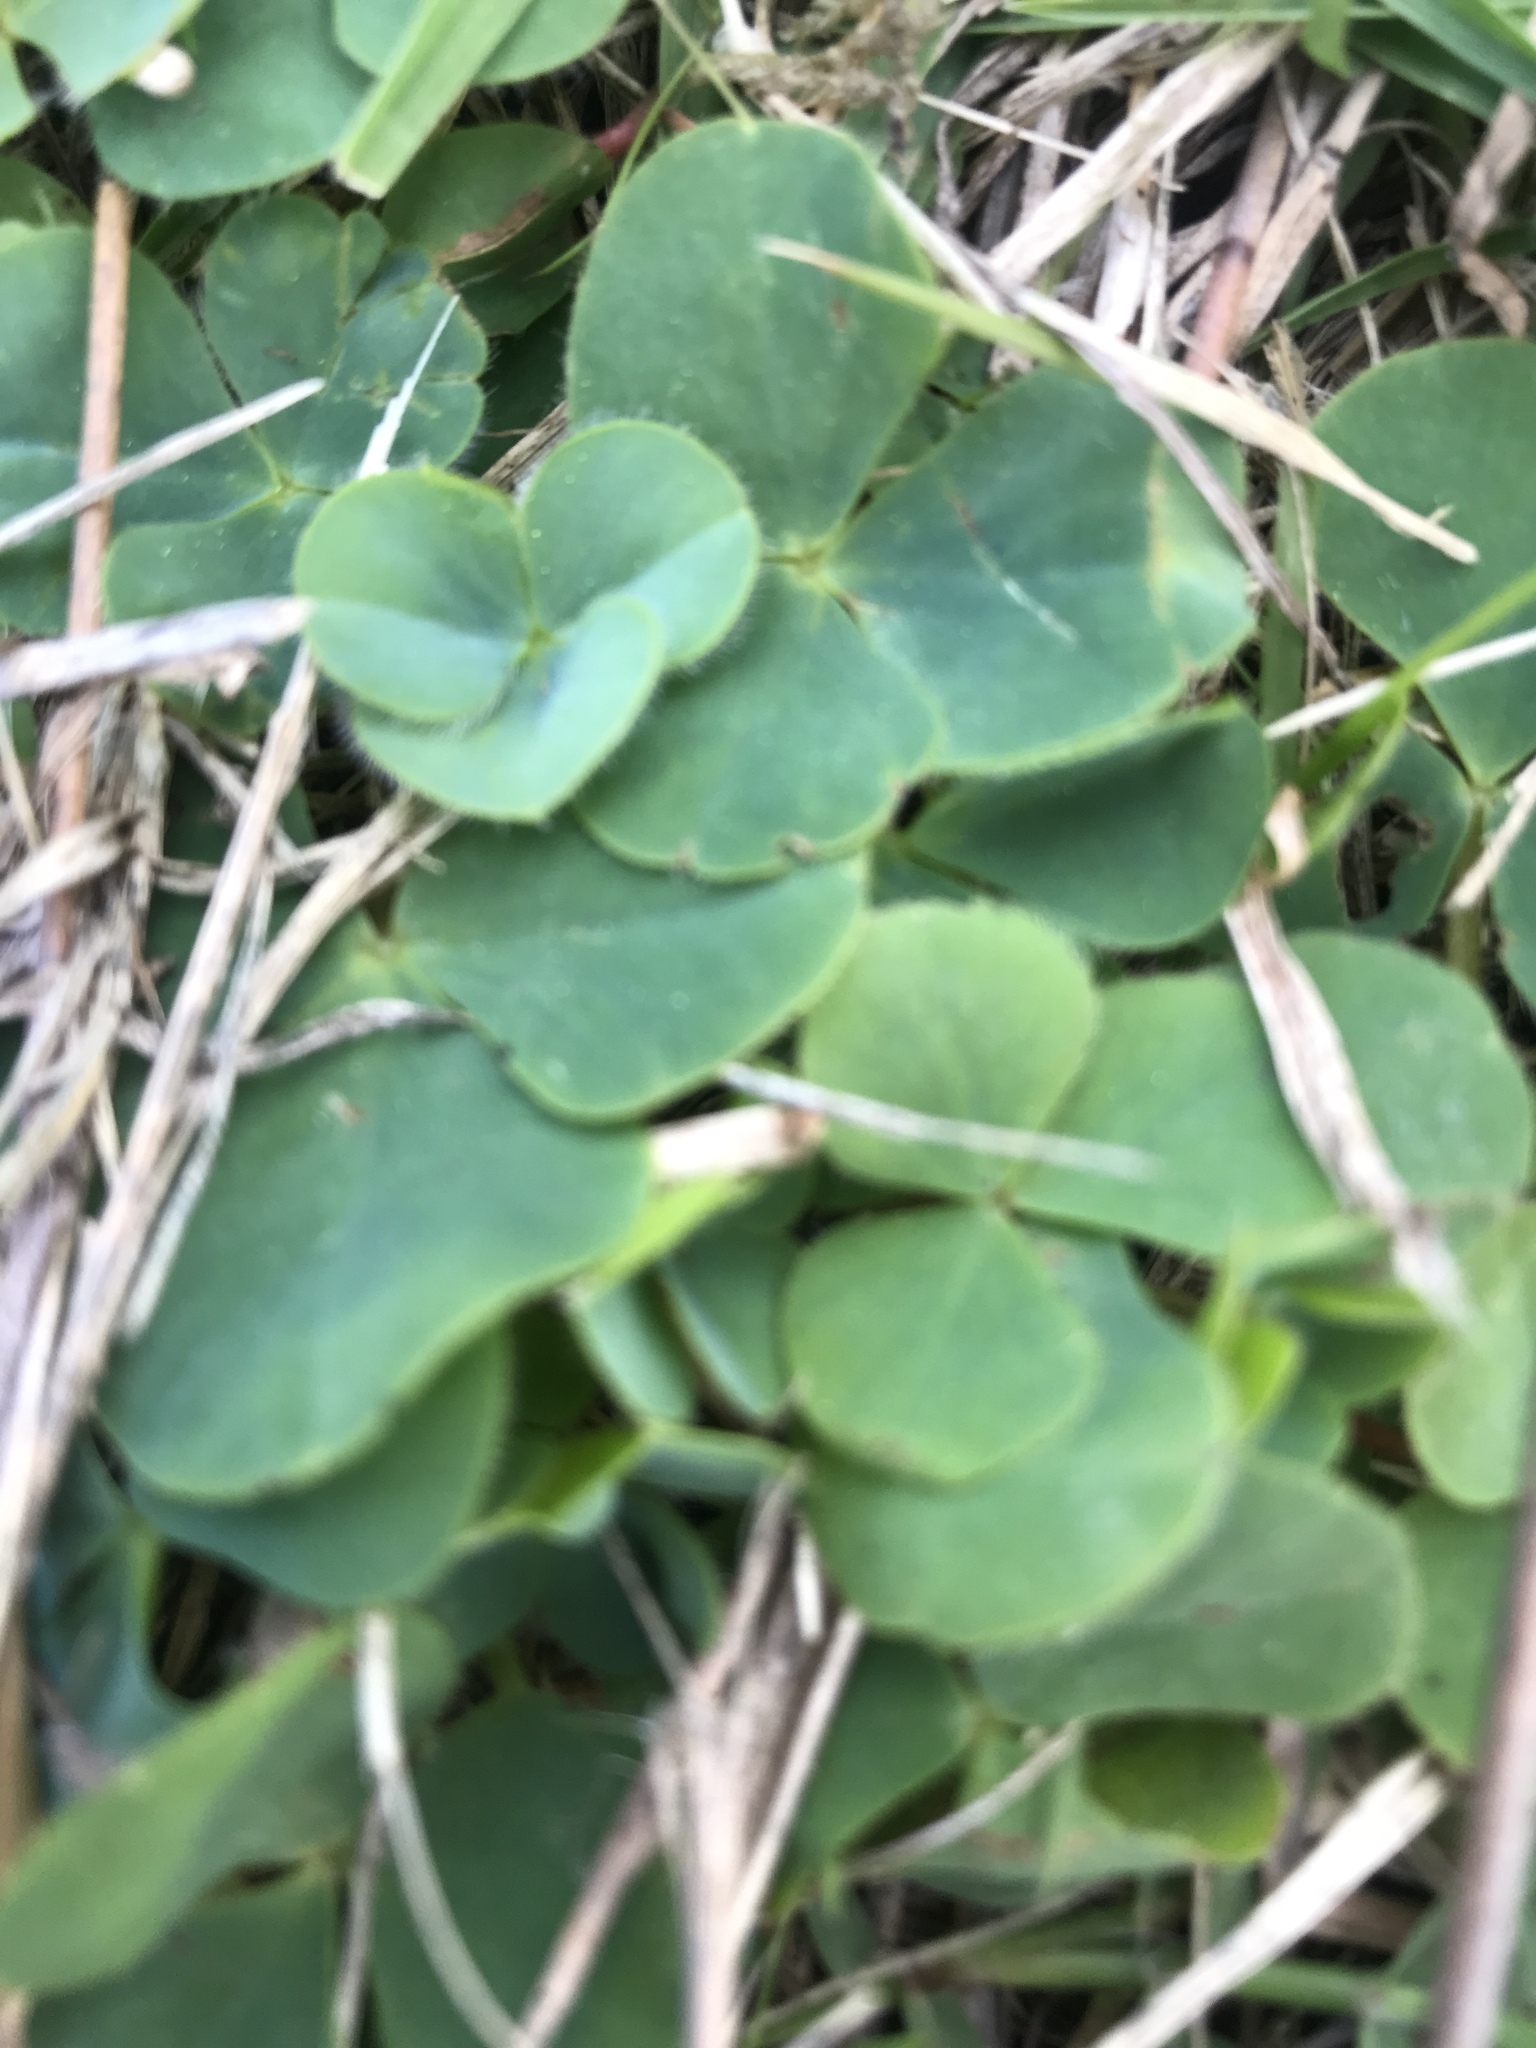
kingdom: Plantae
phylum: Tracheophyta
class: Magnoliopsida
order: Oxalidales
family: Oxalidaceae
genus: Oxalis
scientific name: Oxalis purpurea
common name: Purple woodsorrel
